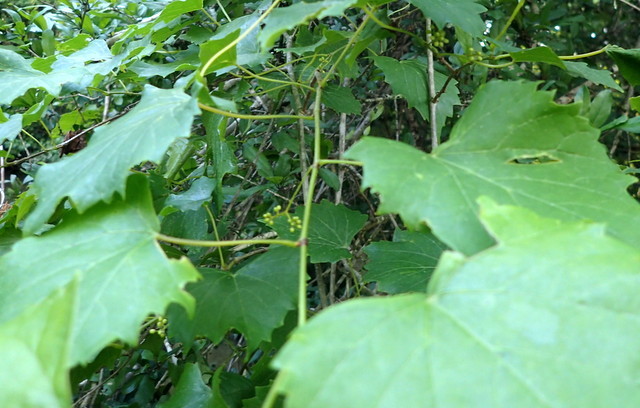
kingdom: Plantae
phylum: Tracheophyta
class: Magnoliopsida
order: Vitales
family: Vitaceae
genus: Vitis
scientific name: Vitis rotundifolia
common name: Muscadine grape
